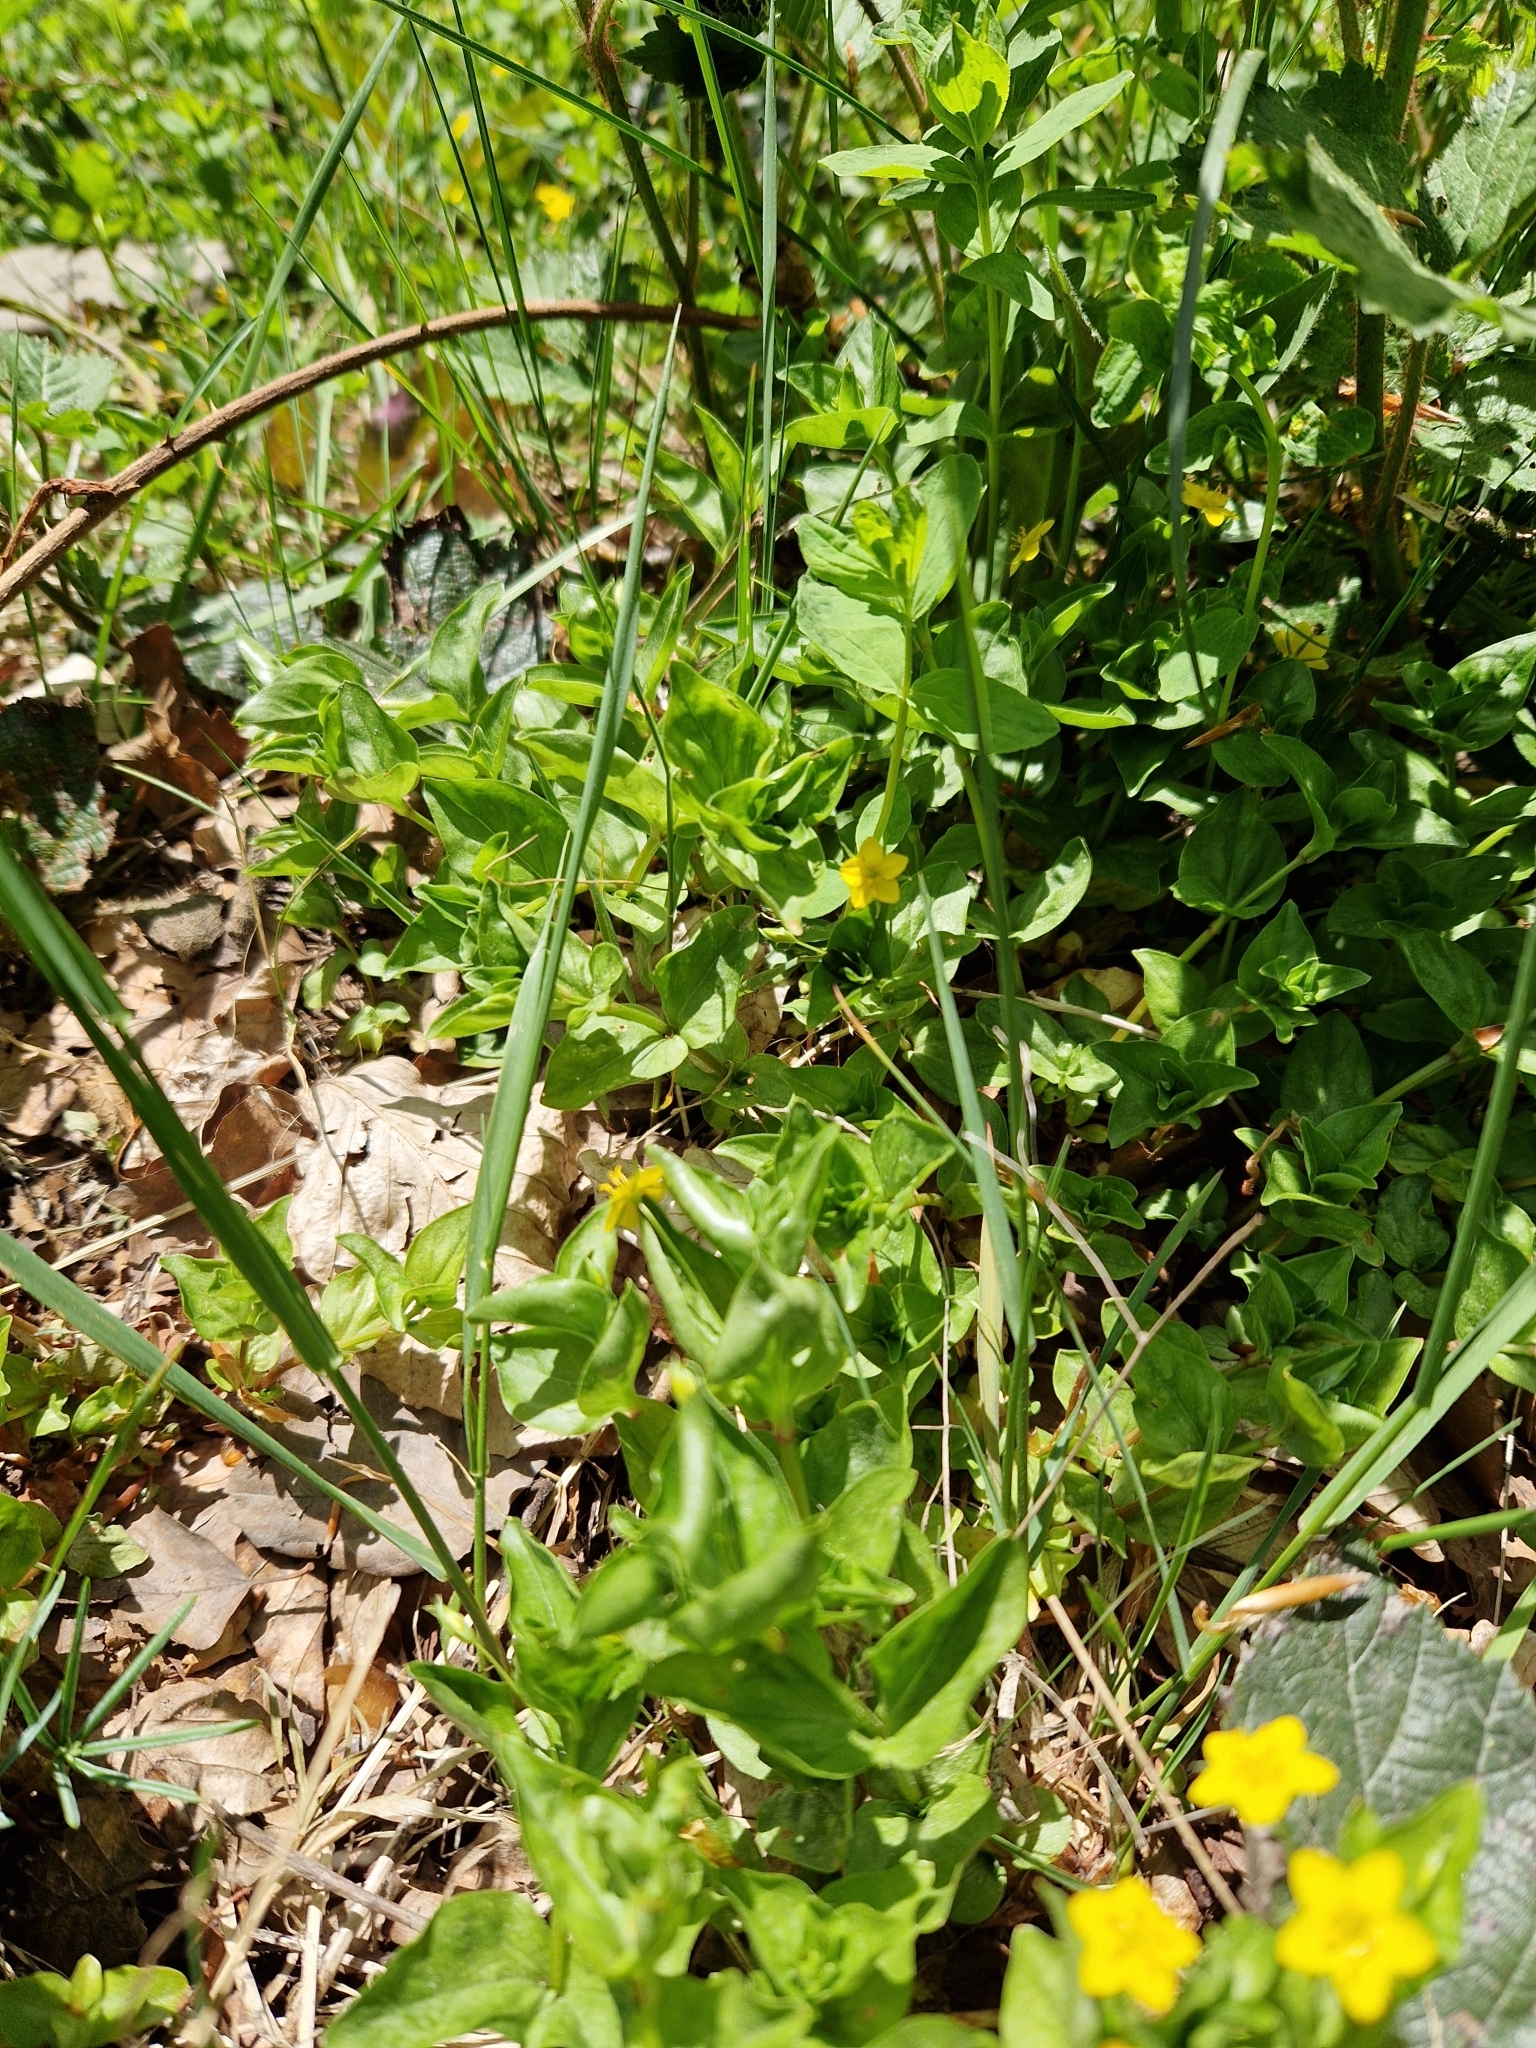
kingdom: Plantae
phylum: Tracheophyta
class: Magnoliopsida
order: Ericales
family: Primulaceae
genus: Lysimachia
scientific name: Lysimachia nemorum
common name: Yellow pimpernel
